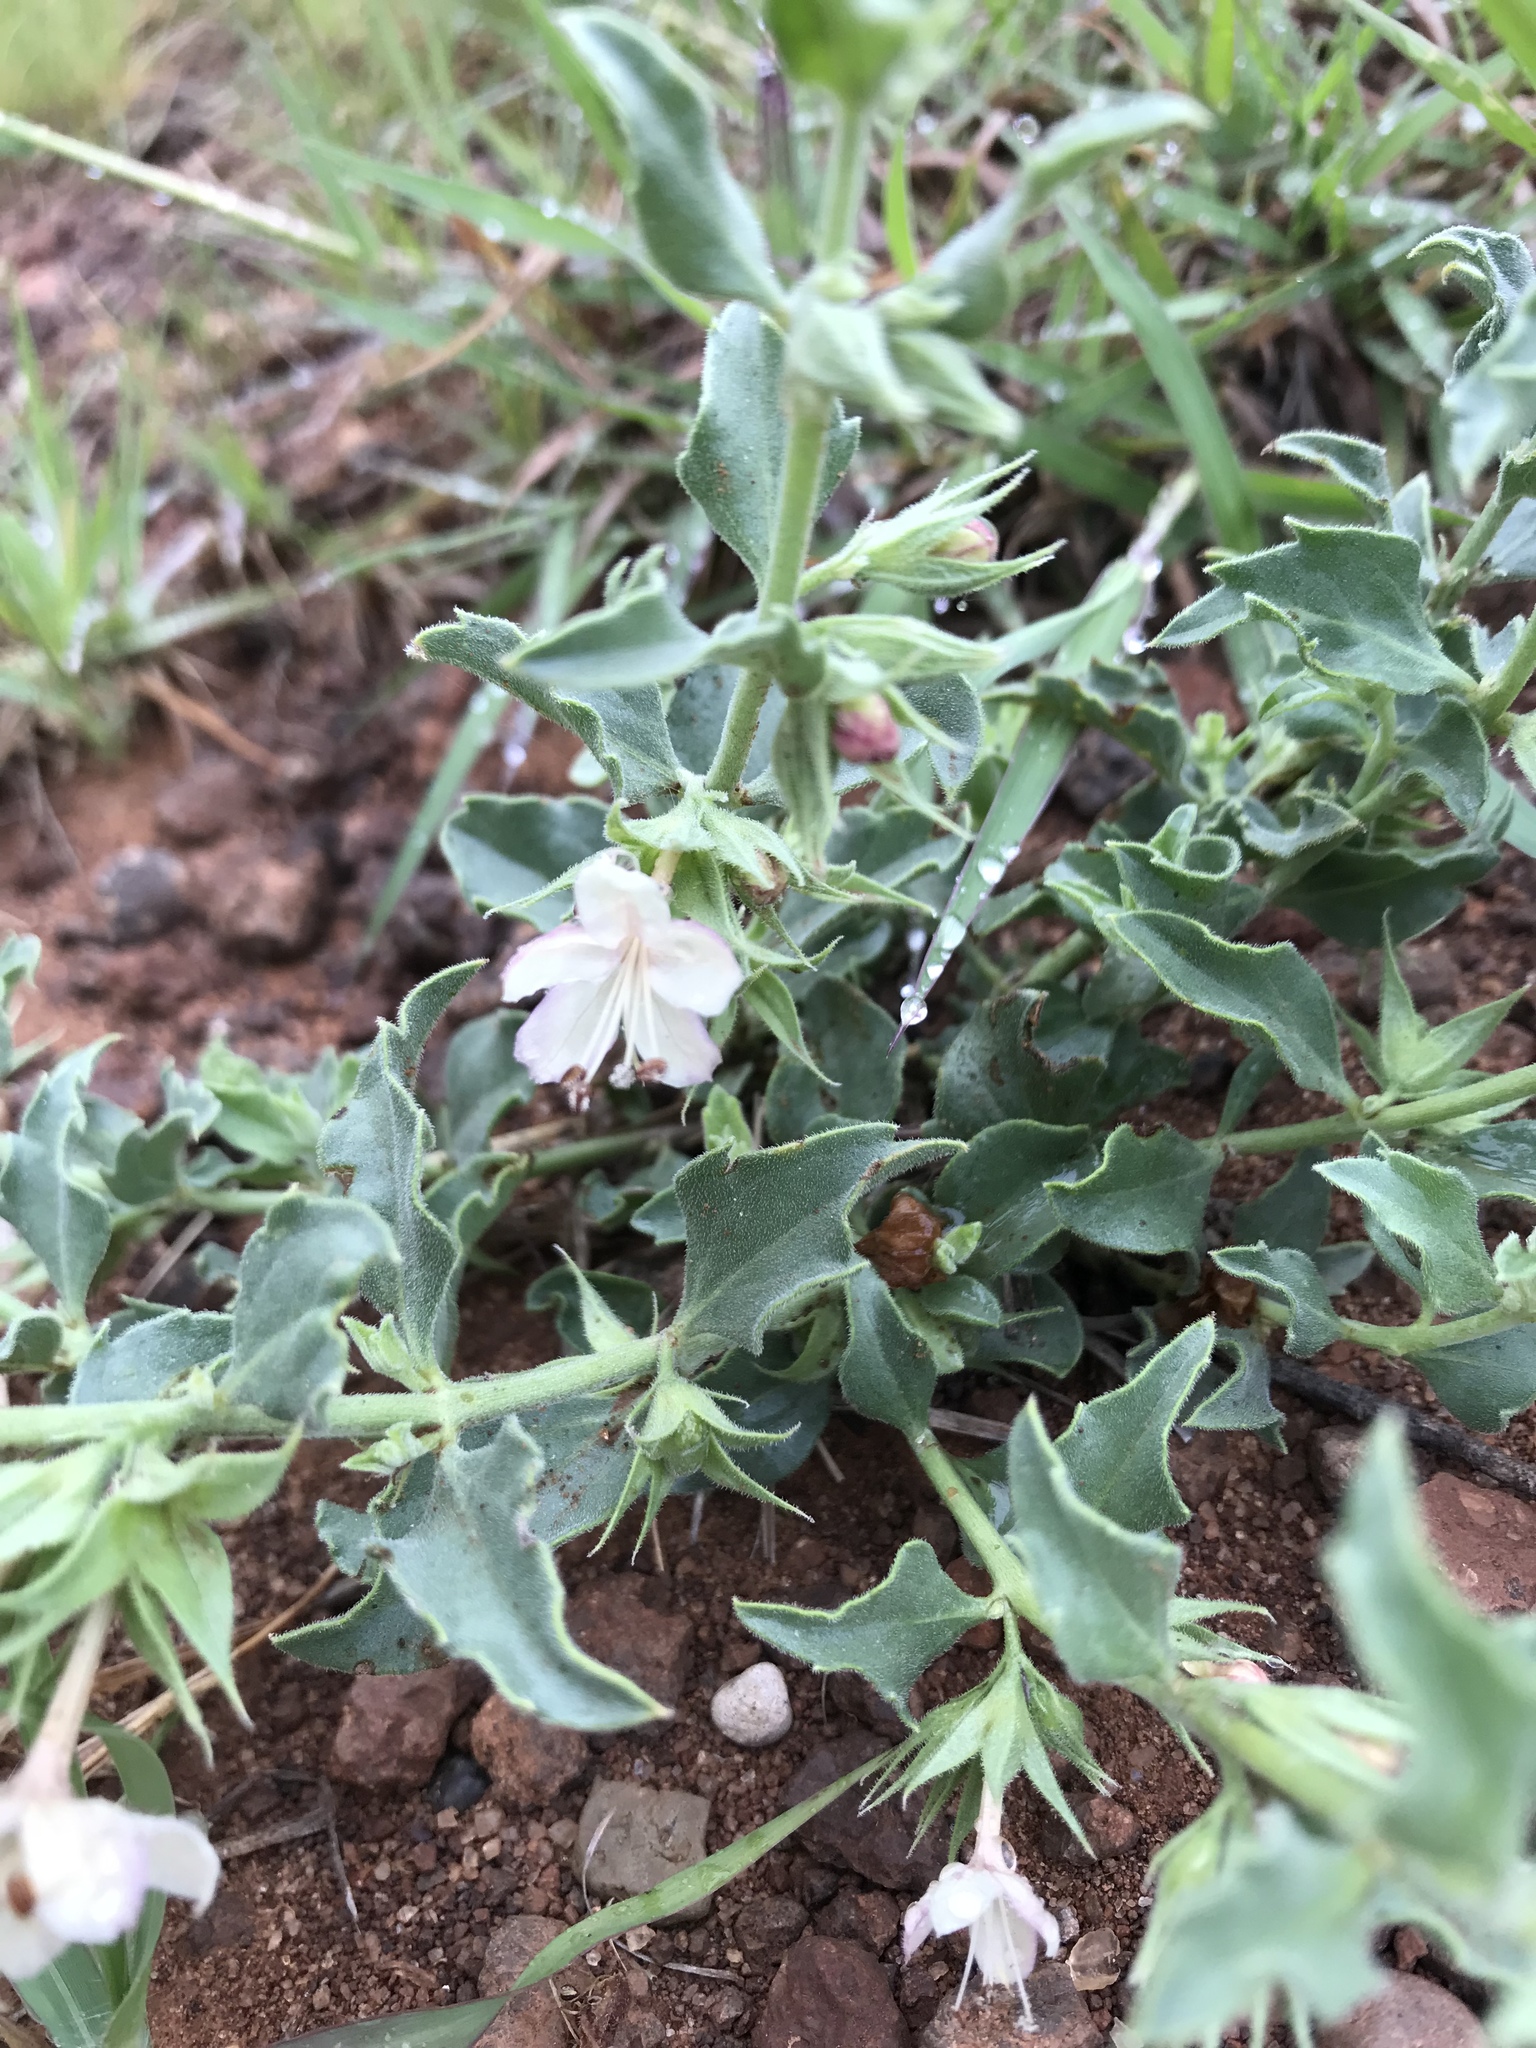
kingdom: Plantae
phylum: Tracheophyta
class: Magnoliopsida
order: Caryophyllales
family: Nyctaginaceae
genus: Acleisanthes
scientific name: Acleisanthes longiflora
